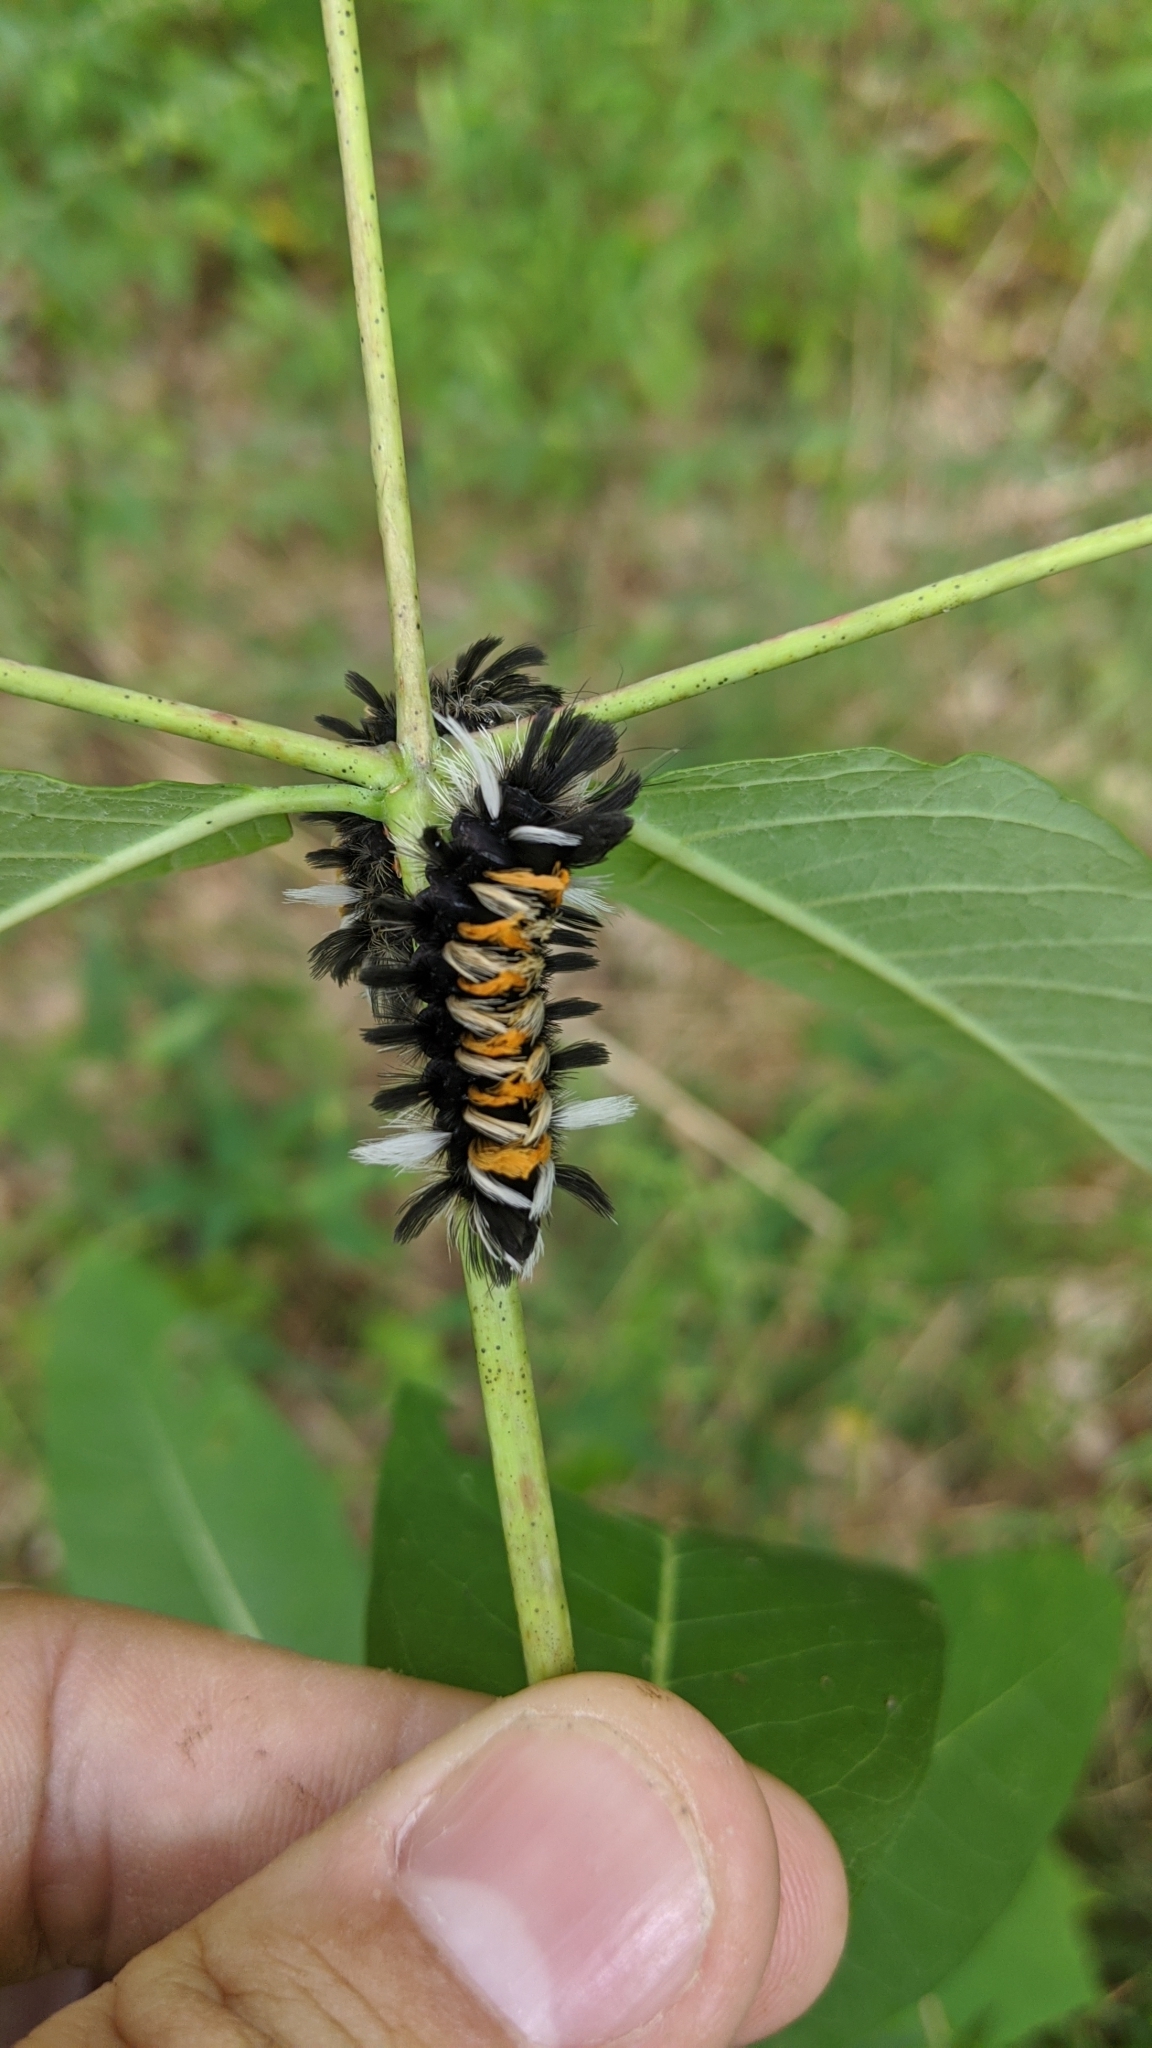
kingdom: Animalia
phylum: Arthropoda
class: Insecta
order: Lepidoptera
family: Erebidae
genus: Euchaetes
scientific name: Euchaetes egle
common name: Milkweed tussock moth
